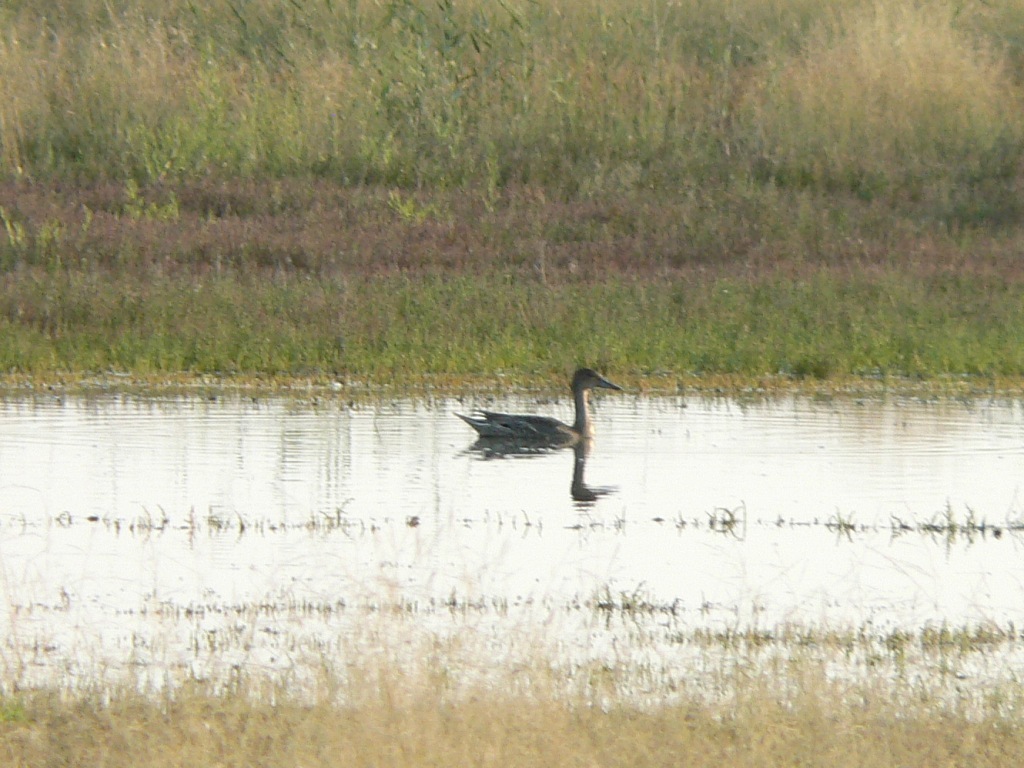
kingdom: Animalia
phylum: Chordata
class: Aves
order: Anseriformes
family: Anatidae
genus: Anas
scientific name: Anas acuta
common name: Northern pintail
